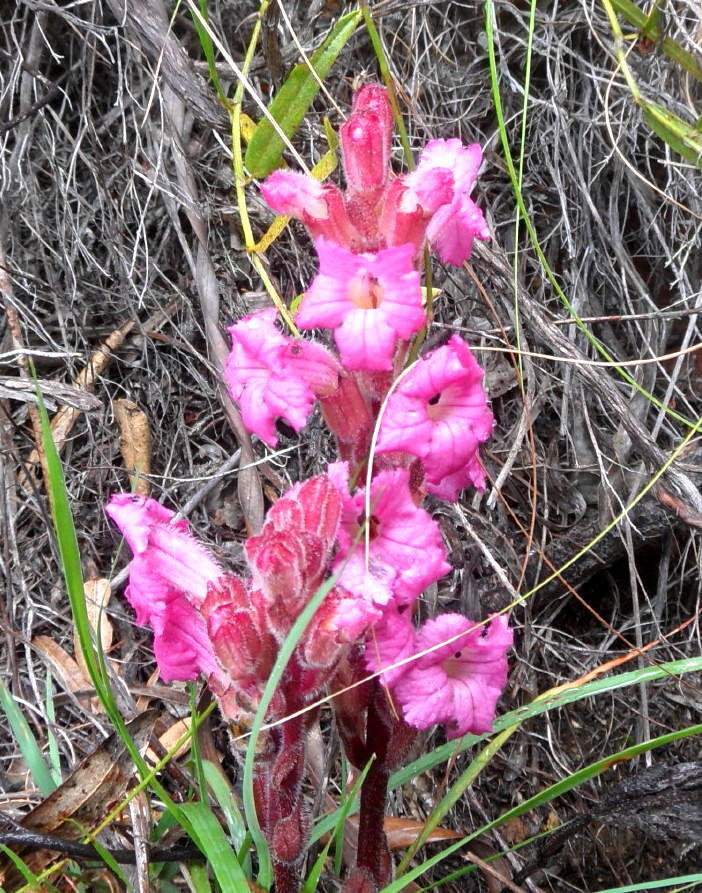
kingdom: Plantae
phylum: Tracheophyta
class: Magnoliopsida
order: Lamiales
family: Orobanchaceae
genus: Harveya
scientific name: Harveya purpurea
